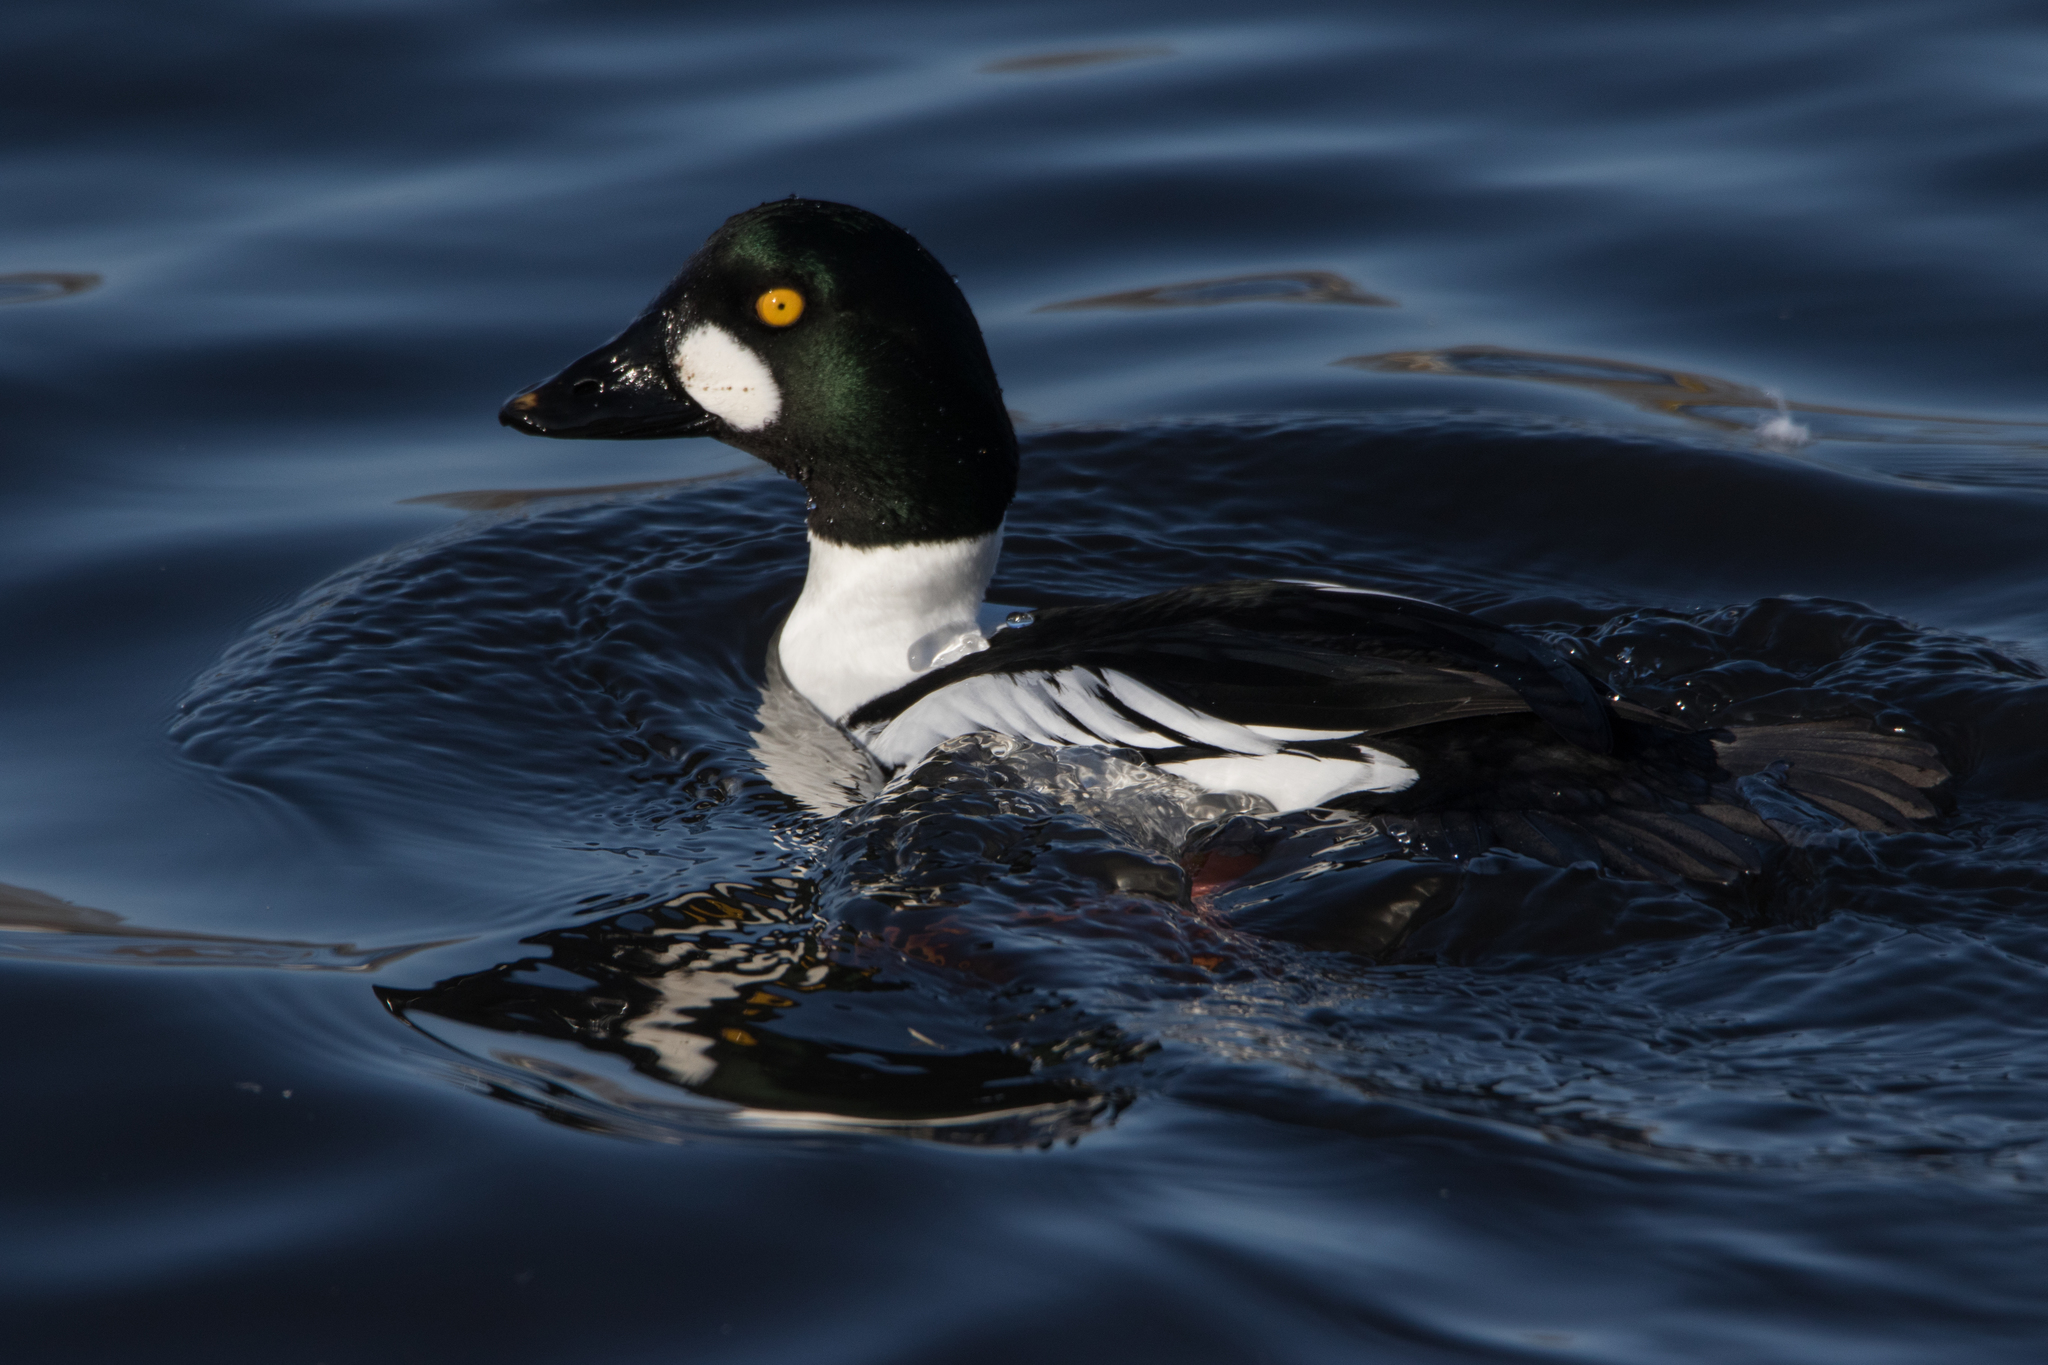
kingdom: Animalia
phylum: Chordata
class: Aves
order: Anseriformes
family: Anatidae
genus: Bucephala
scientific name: Bucephala clangula
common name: Common goldeneye
